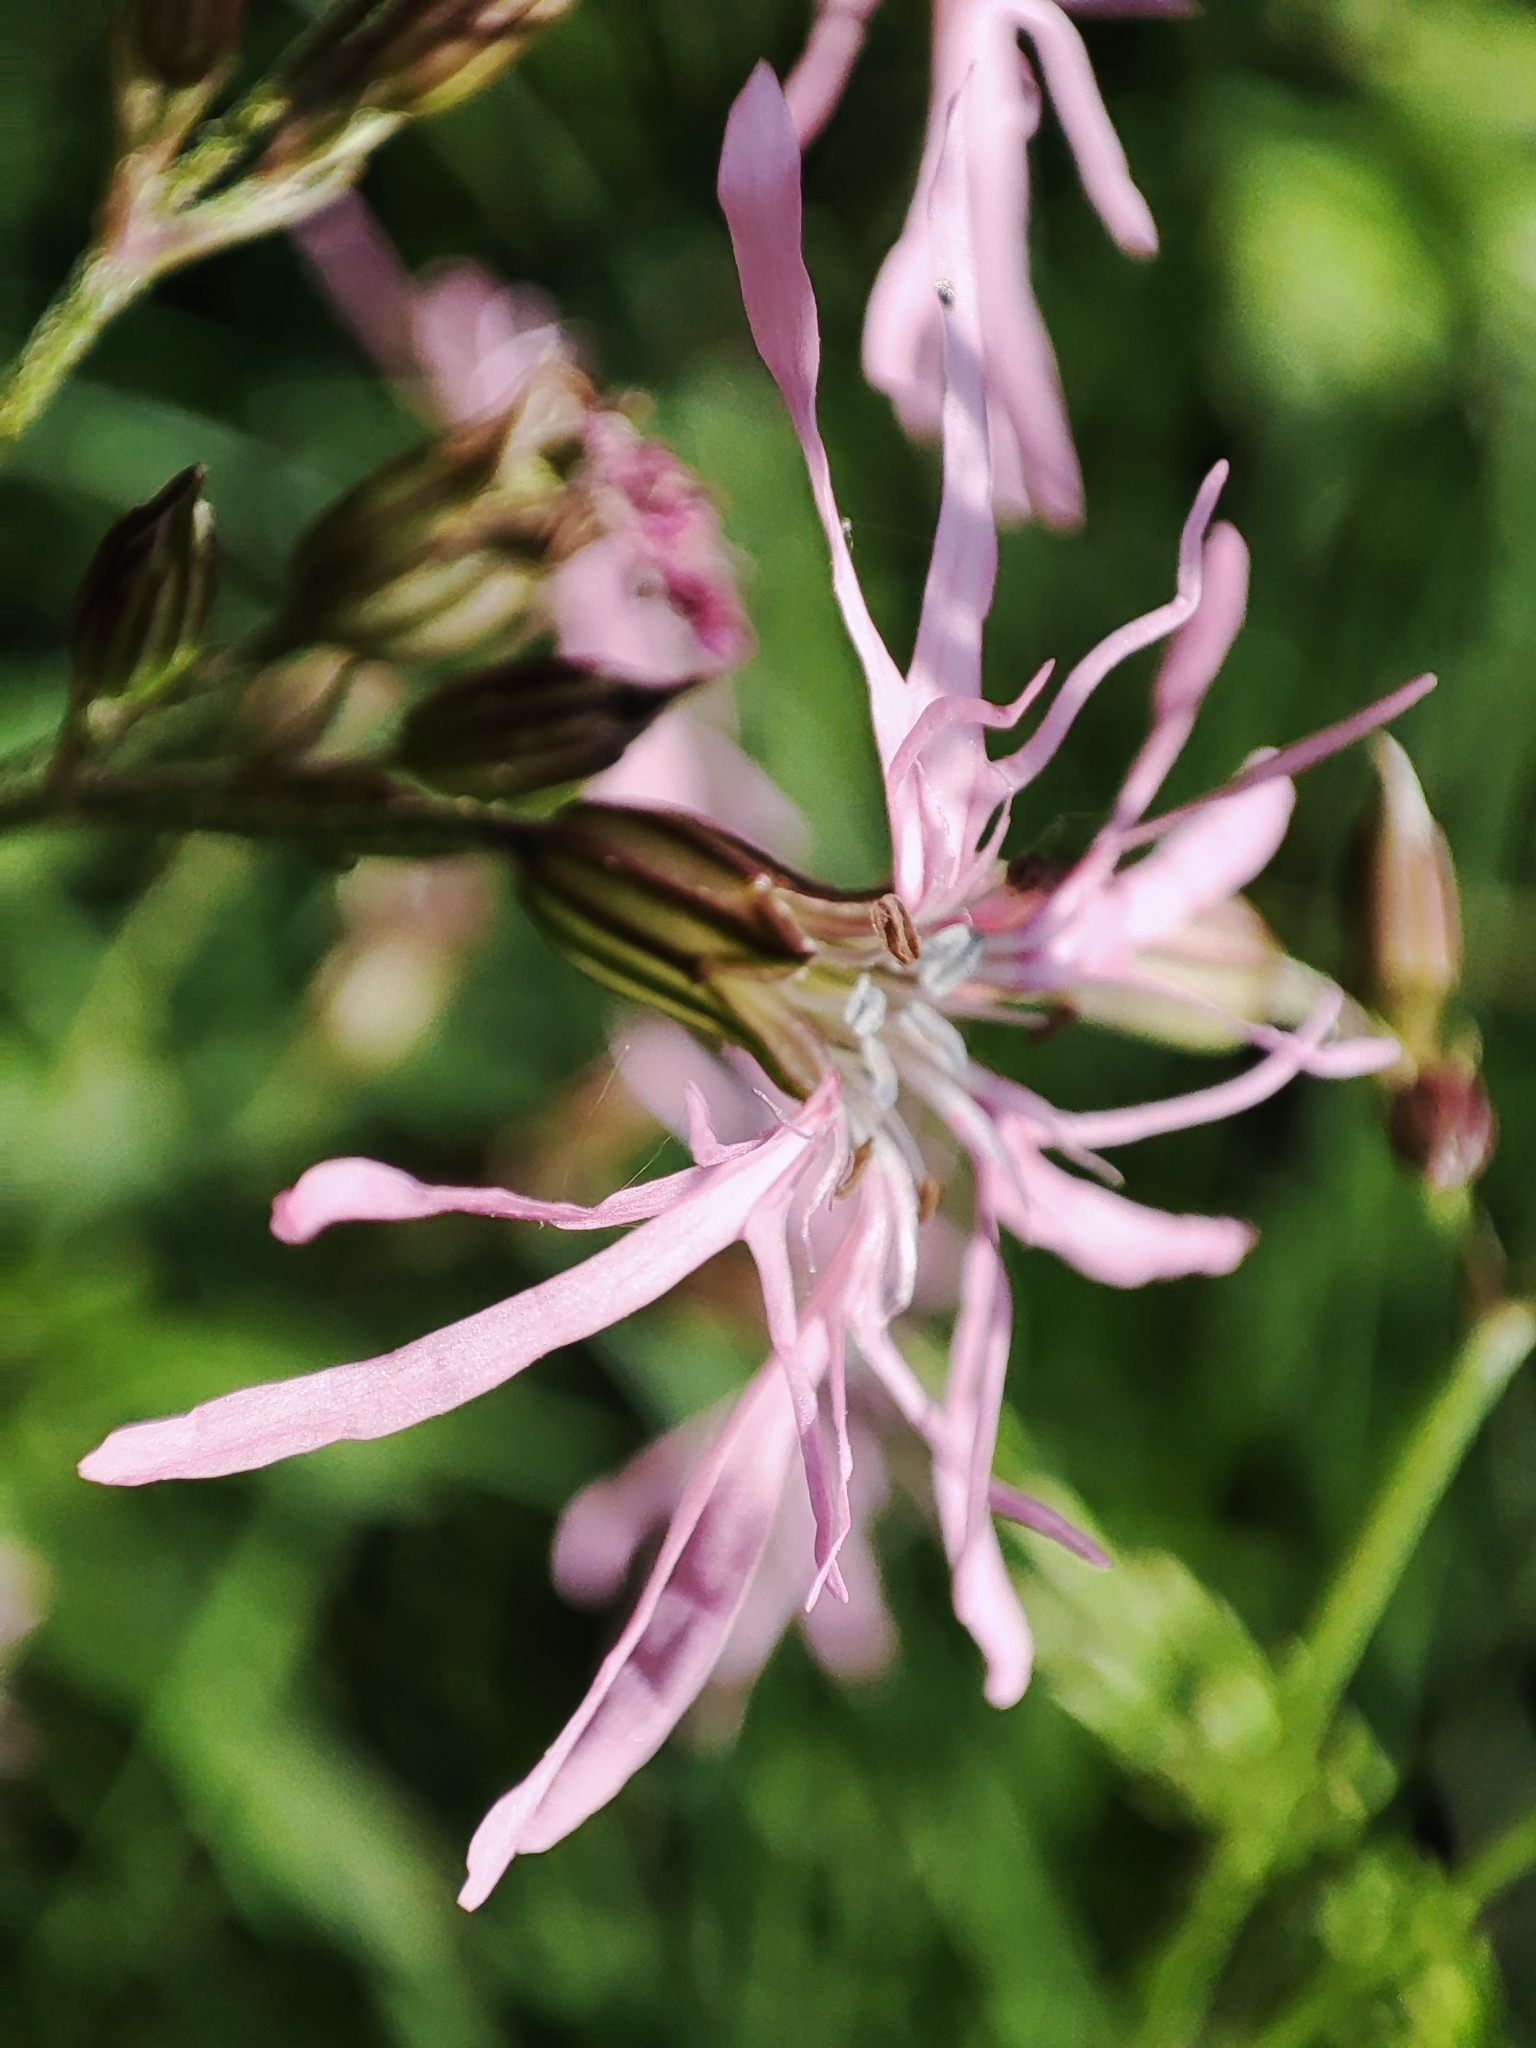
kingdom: Plantae
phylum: Tracheophyta
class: Magnoliopsida
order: Caryophyllales
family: Caryophyllaceae
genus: Silene
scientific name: Silene flos-cuculi
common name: Ragged-robin
